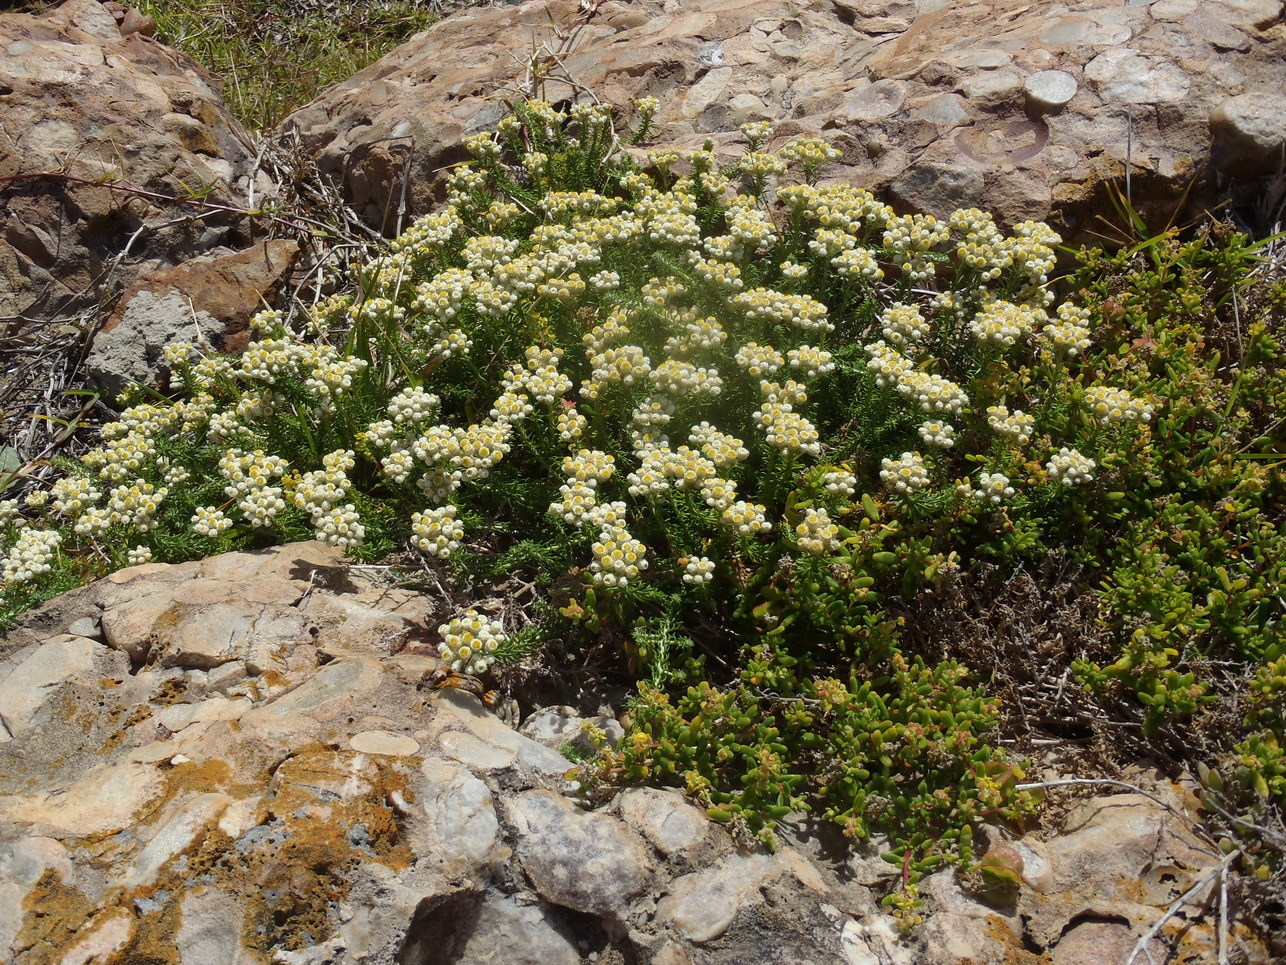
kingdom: Plantae
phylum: Tracheophyta
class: Magnoliopsida
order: Asterales
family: Asteraceae
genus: Helichrysum
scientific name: Helichrysum teretifolium
